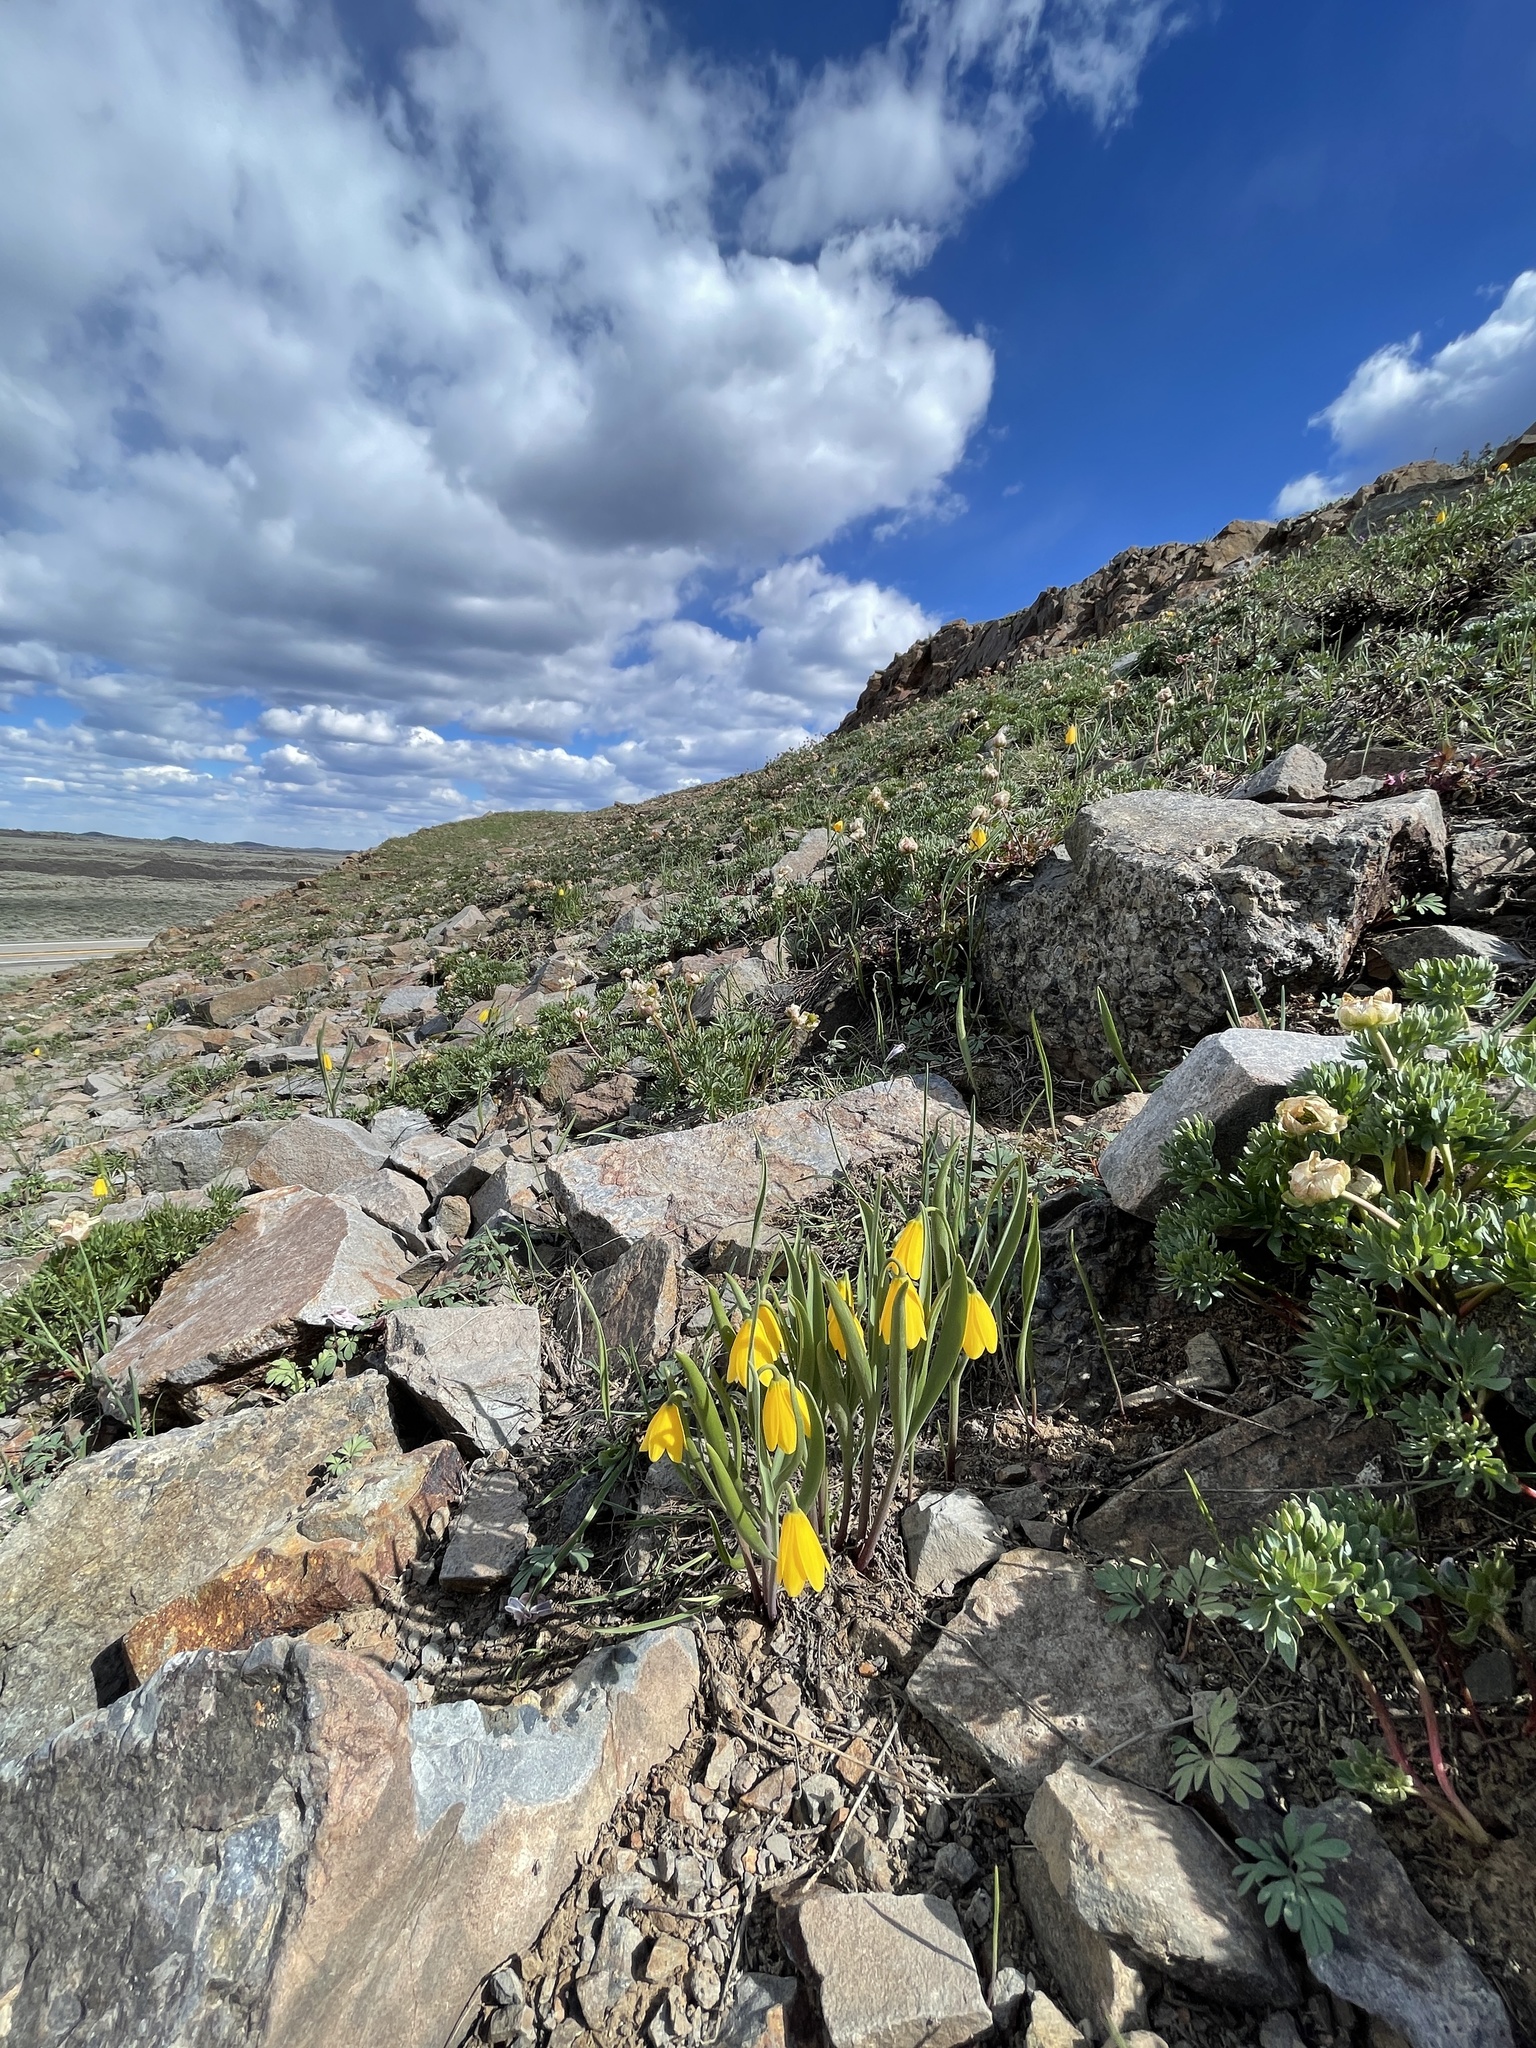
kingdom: Plantae
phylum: Tracheophyta
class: Liliopsida
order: Liliales
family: Liliaceae
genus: Fritillaria
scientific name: Fritillaria pudica
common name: Yellow fritillary
